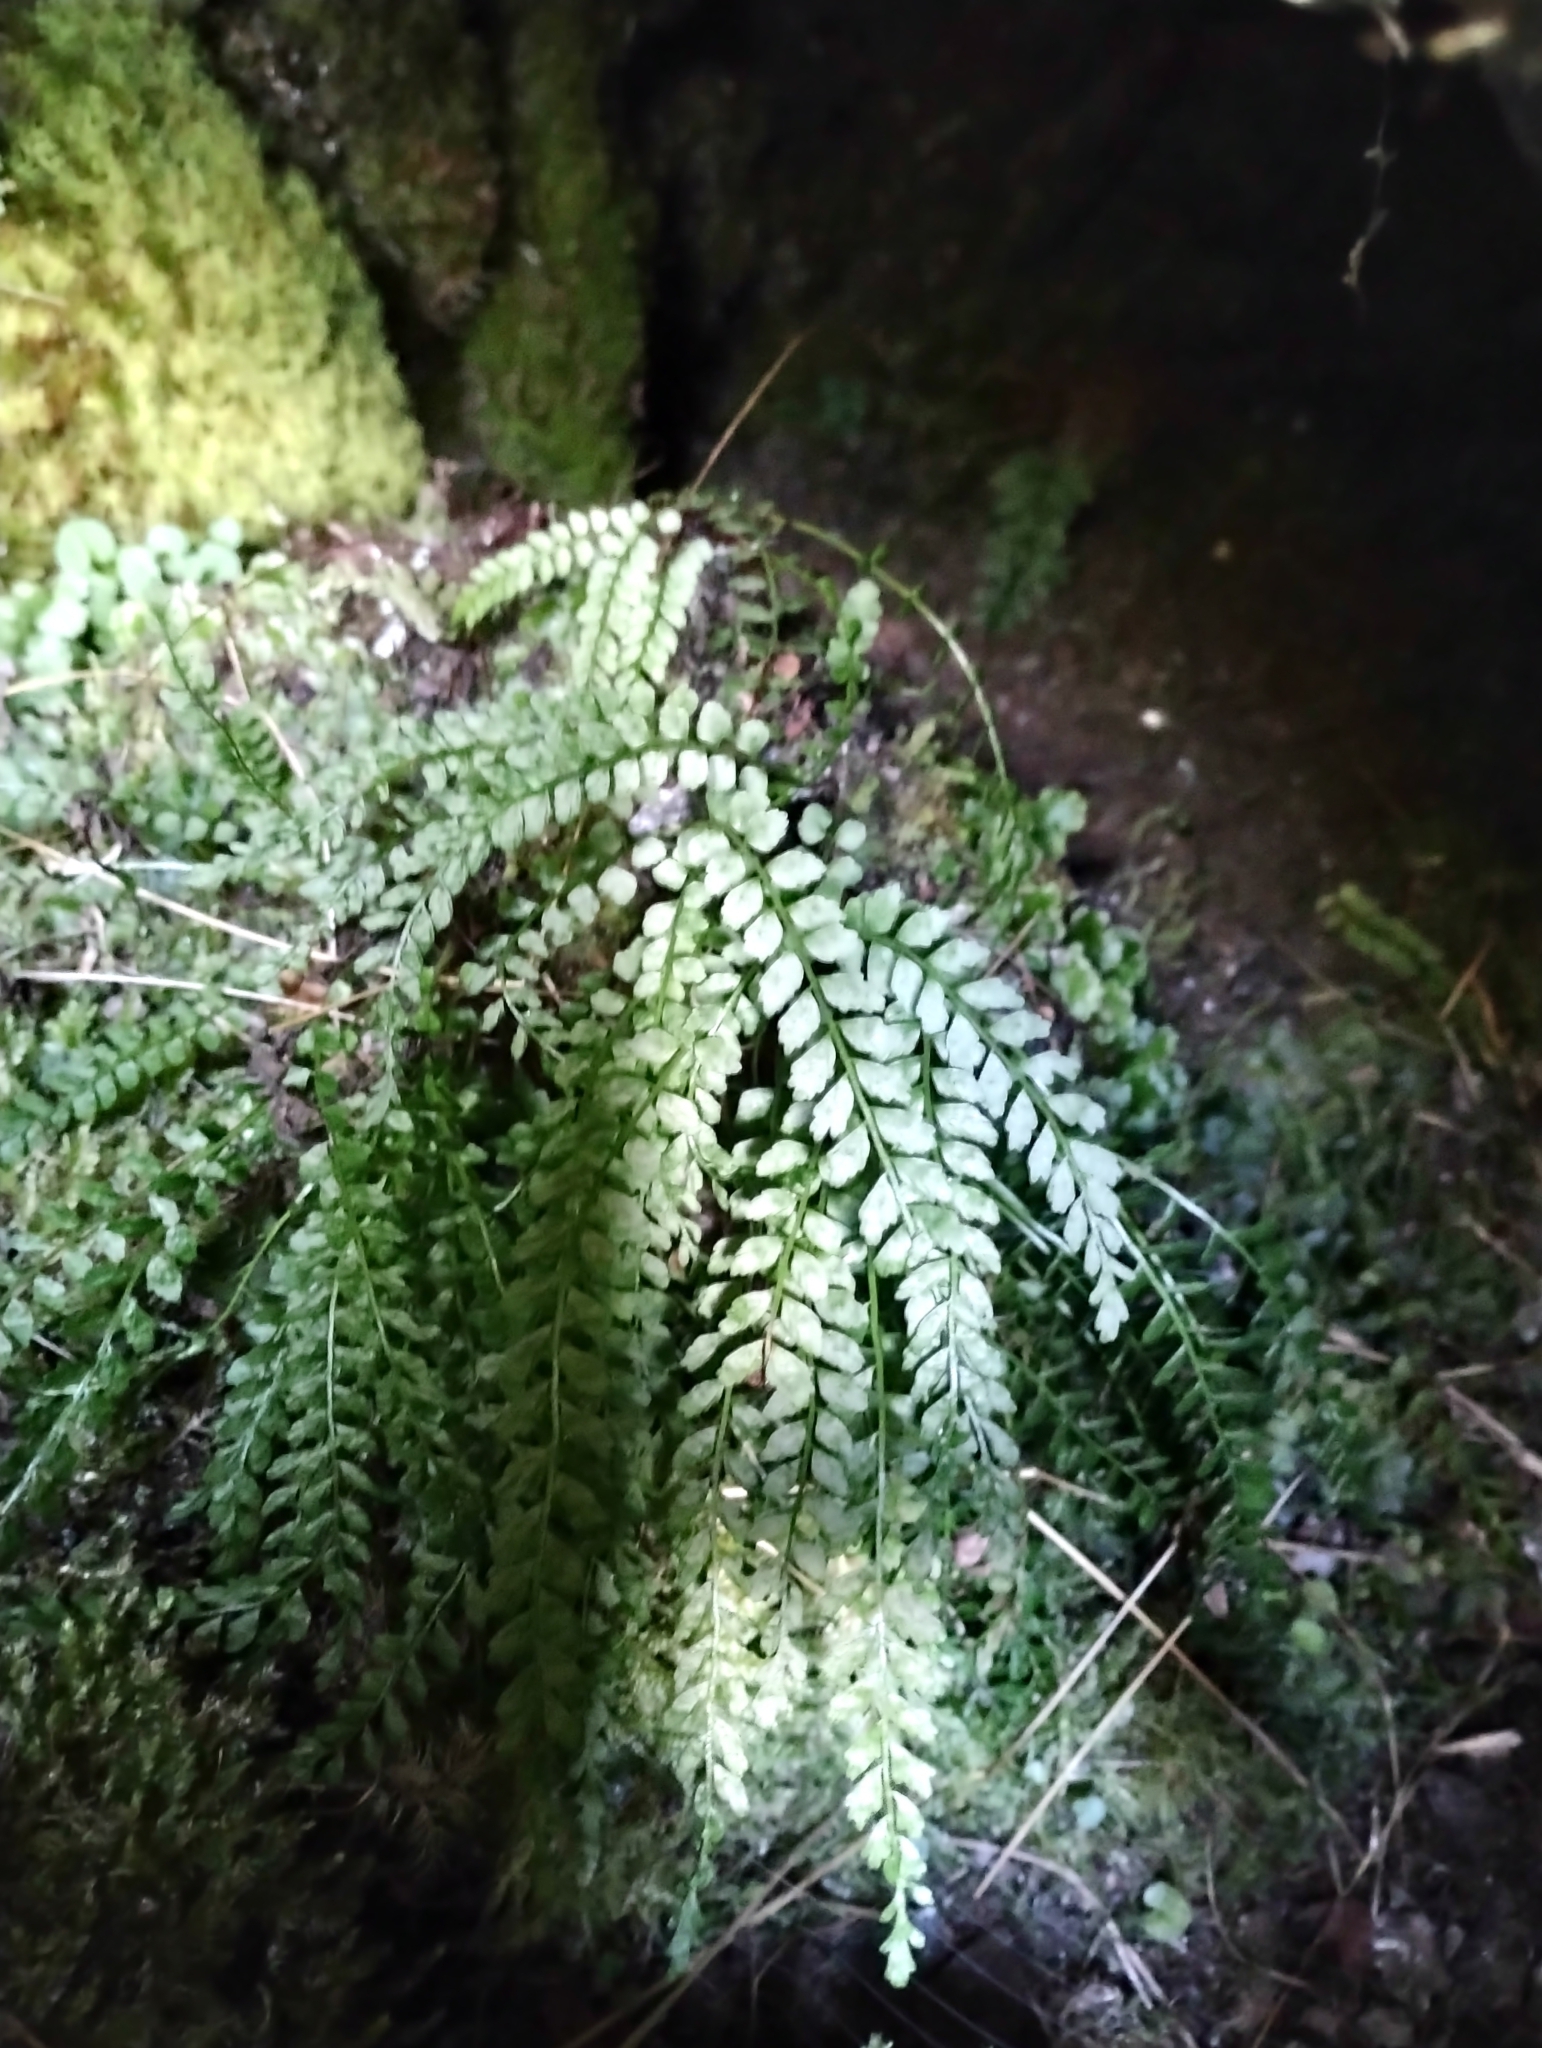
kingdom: Plantae
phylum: Tracheophyta
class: Polypodiopsida
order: Polypodiales
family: Aspleniaceae
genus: Asplenium
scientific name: Asplenium viride
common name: Green spleenwort
